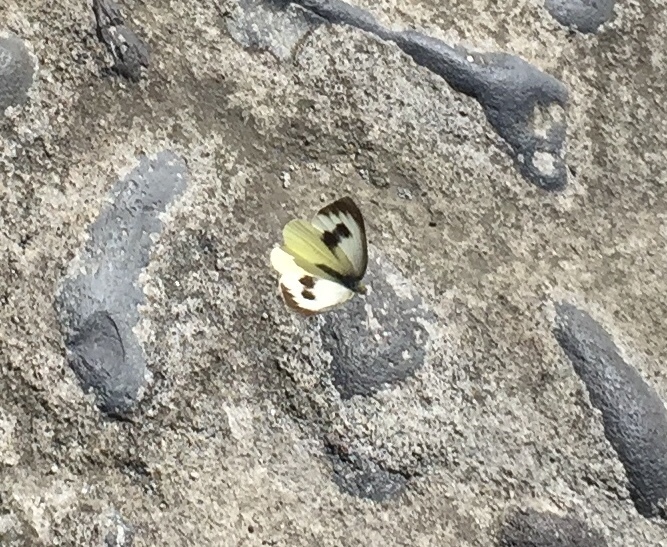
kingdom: Animalia
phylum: Arthropoda
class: Insecta
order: Lepidoptera
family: Pieridae
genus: Pieris
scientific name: Pieris cheiranthi
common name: Canary islands large white
